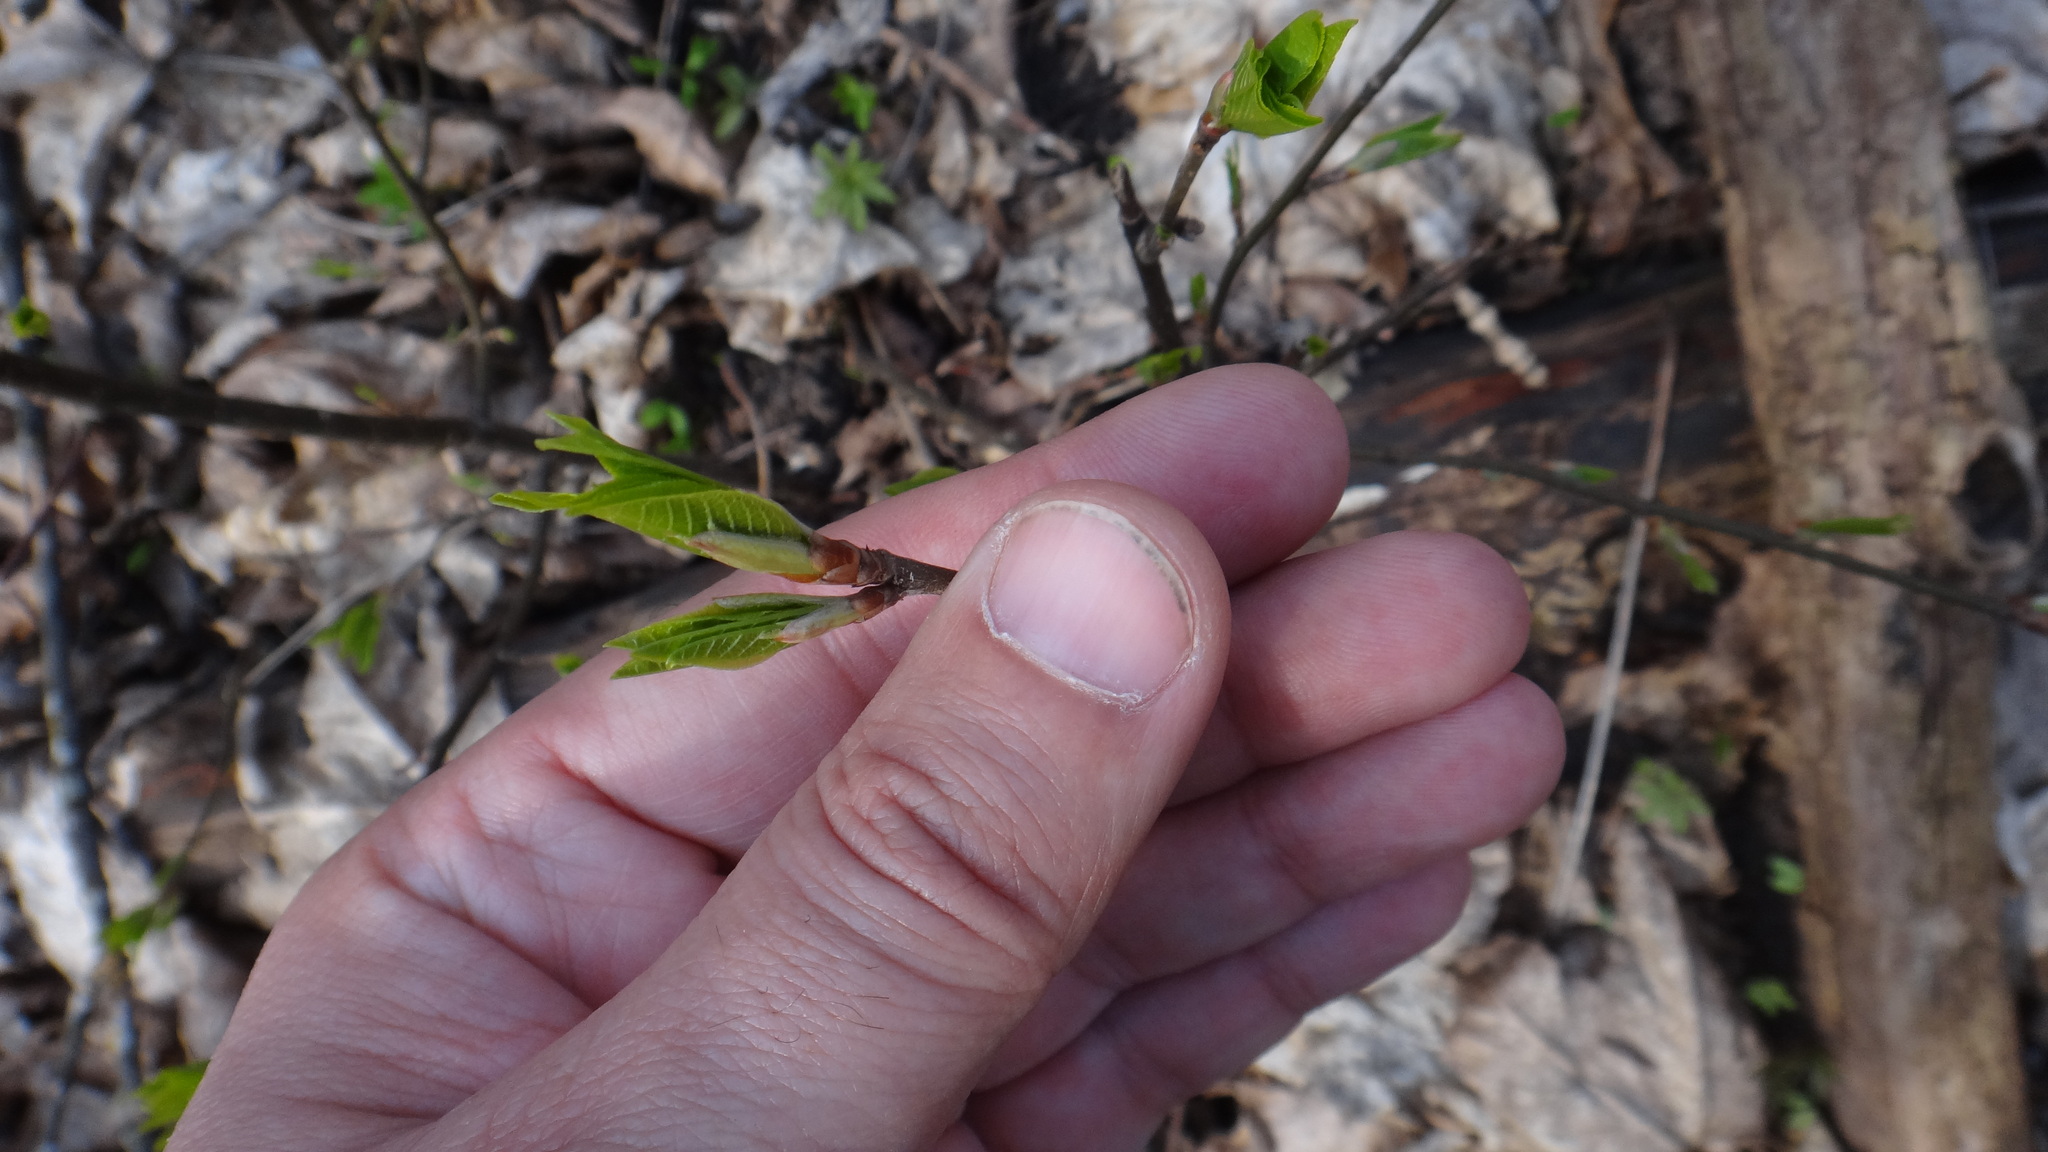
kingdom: Plantae
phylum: Tracheophyta
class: Magnoliopsida
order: Rosales
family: Rosaceae
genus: Prunus
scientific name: Prunus padus
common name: Bird cherry
